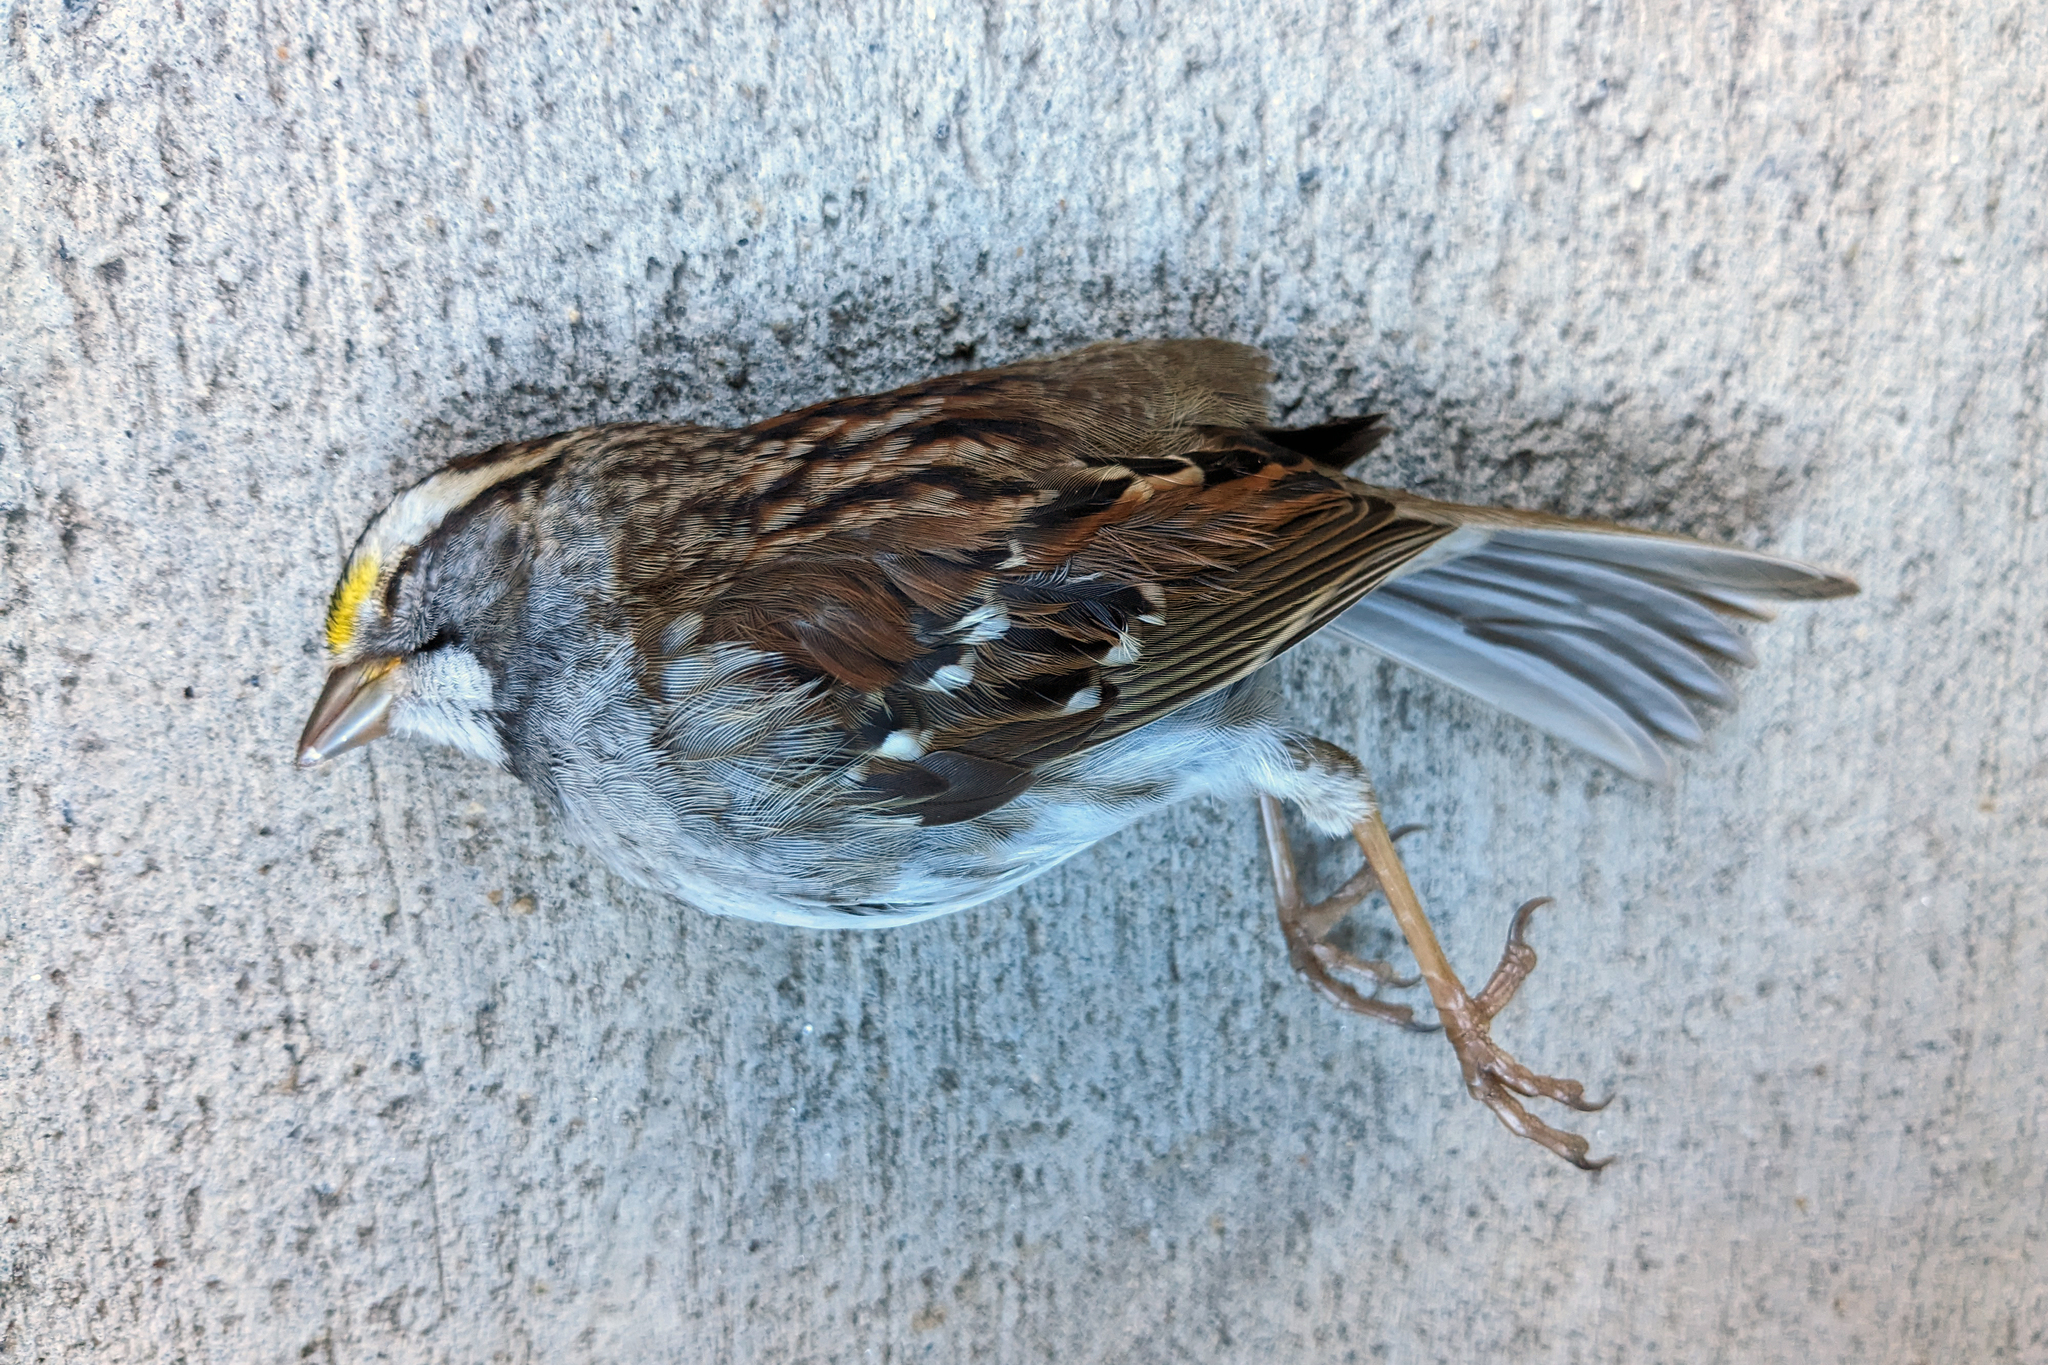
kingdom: Animalia
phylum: Chordata
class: Aves
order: Passeriformes
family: Passerellidae
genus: Zonotrichia
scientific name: Zonotrichia albicollis
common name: White-throated sparrow
